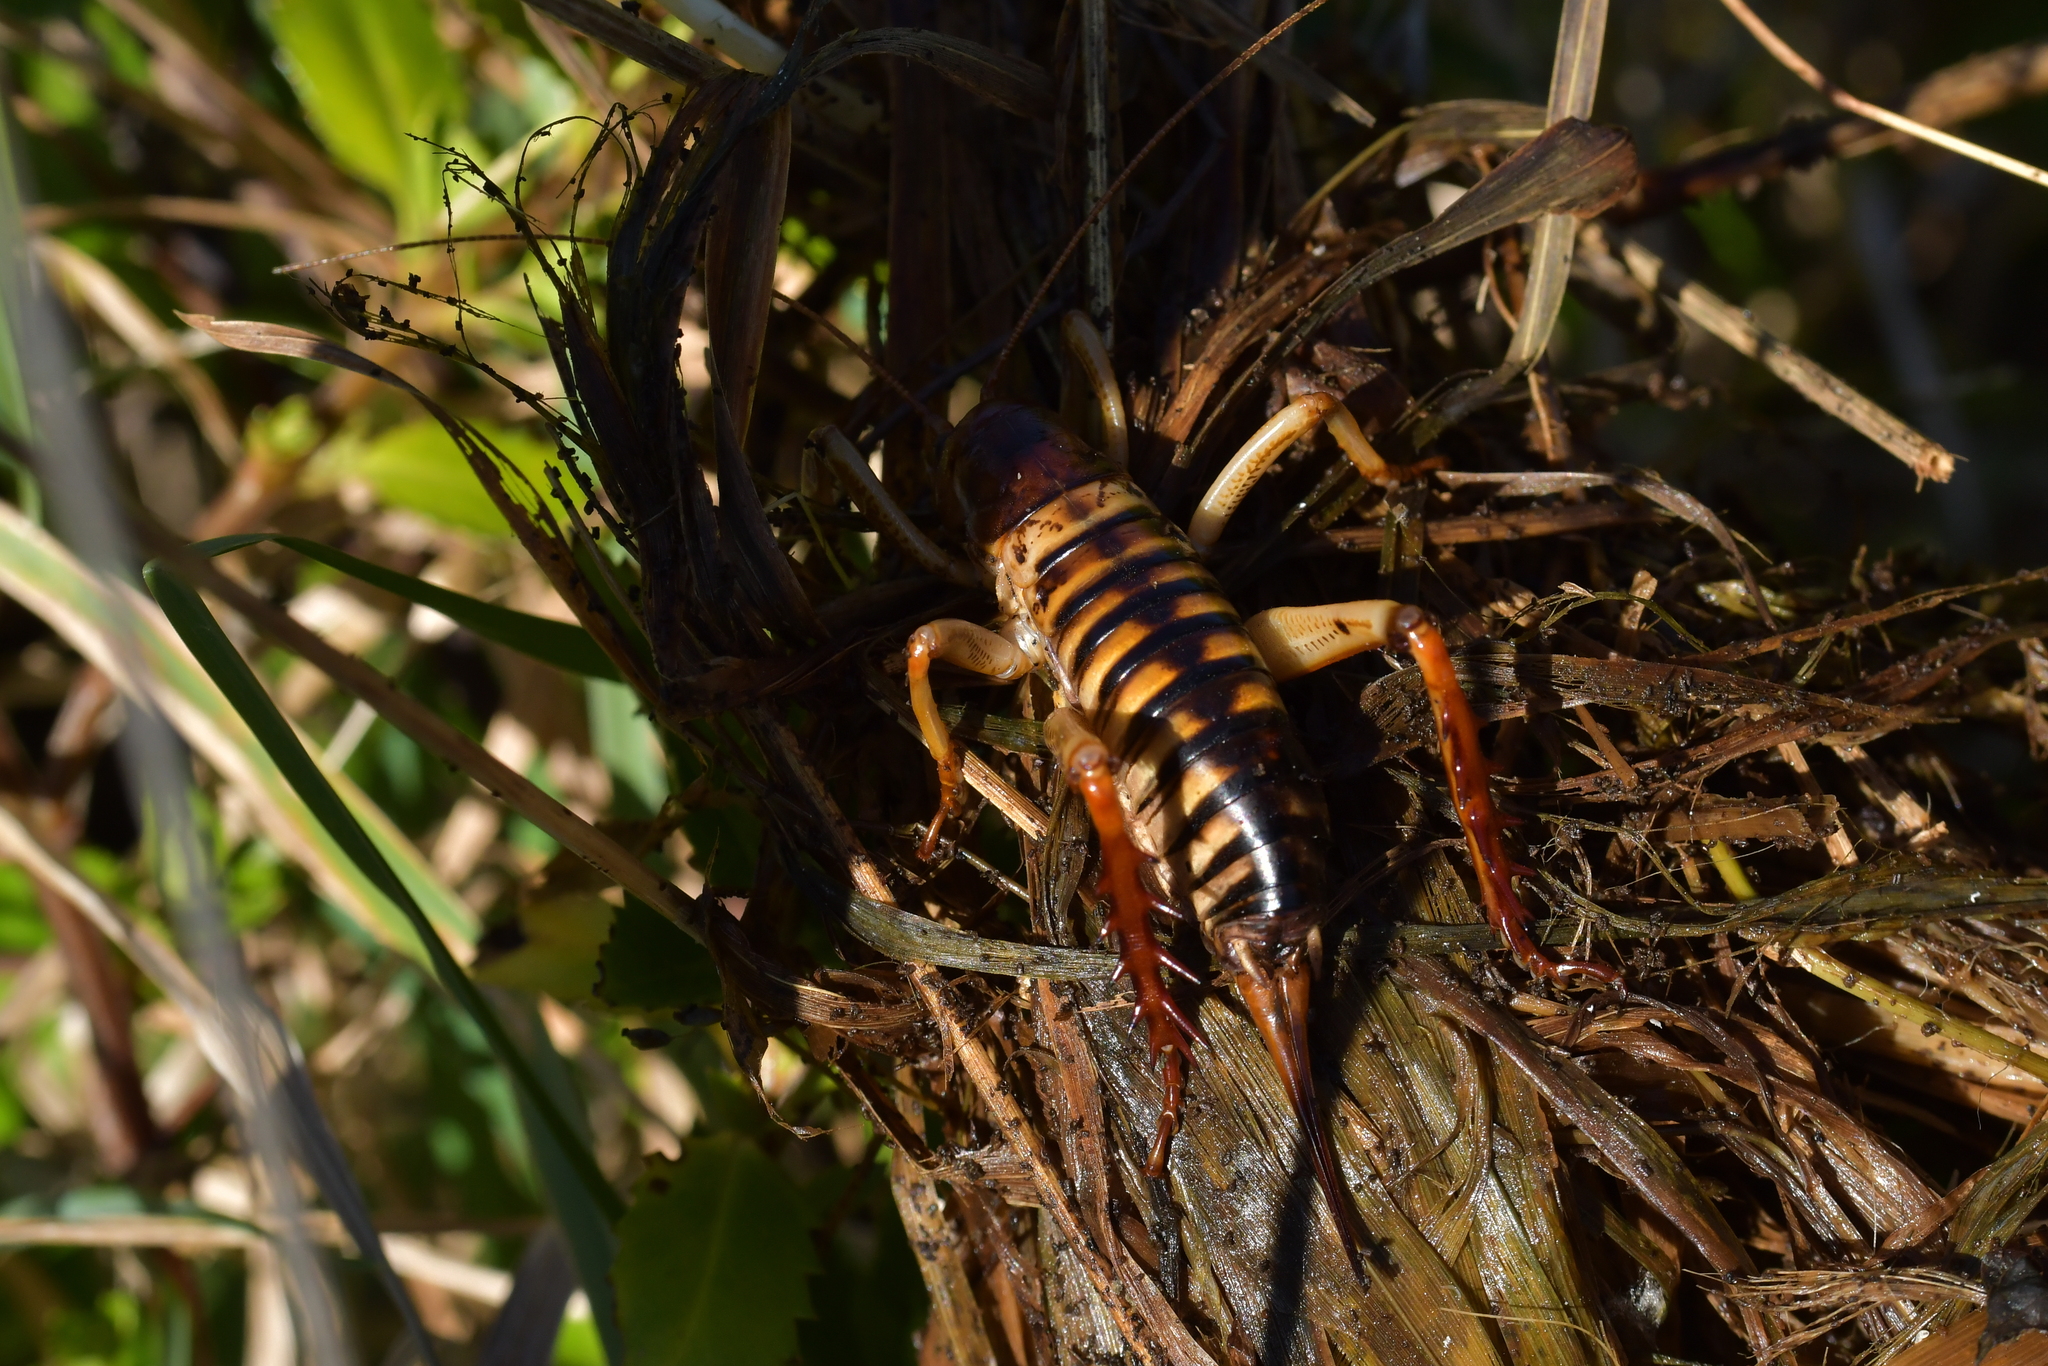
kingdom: Animalia
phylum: Arthropoda
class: Insecta
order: Orthoptera
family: Anostostomatidae
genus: Hemideina
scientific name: Hemideina crassidens
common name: Wellington tree weta
